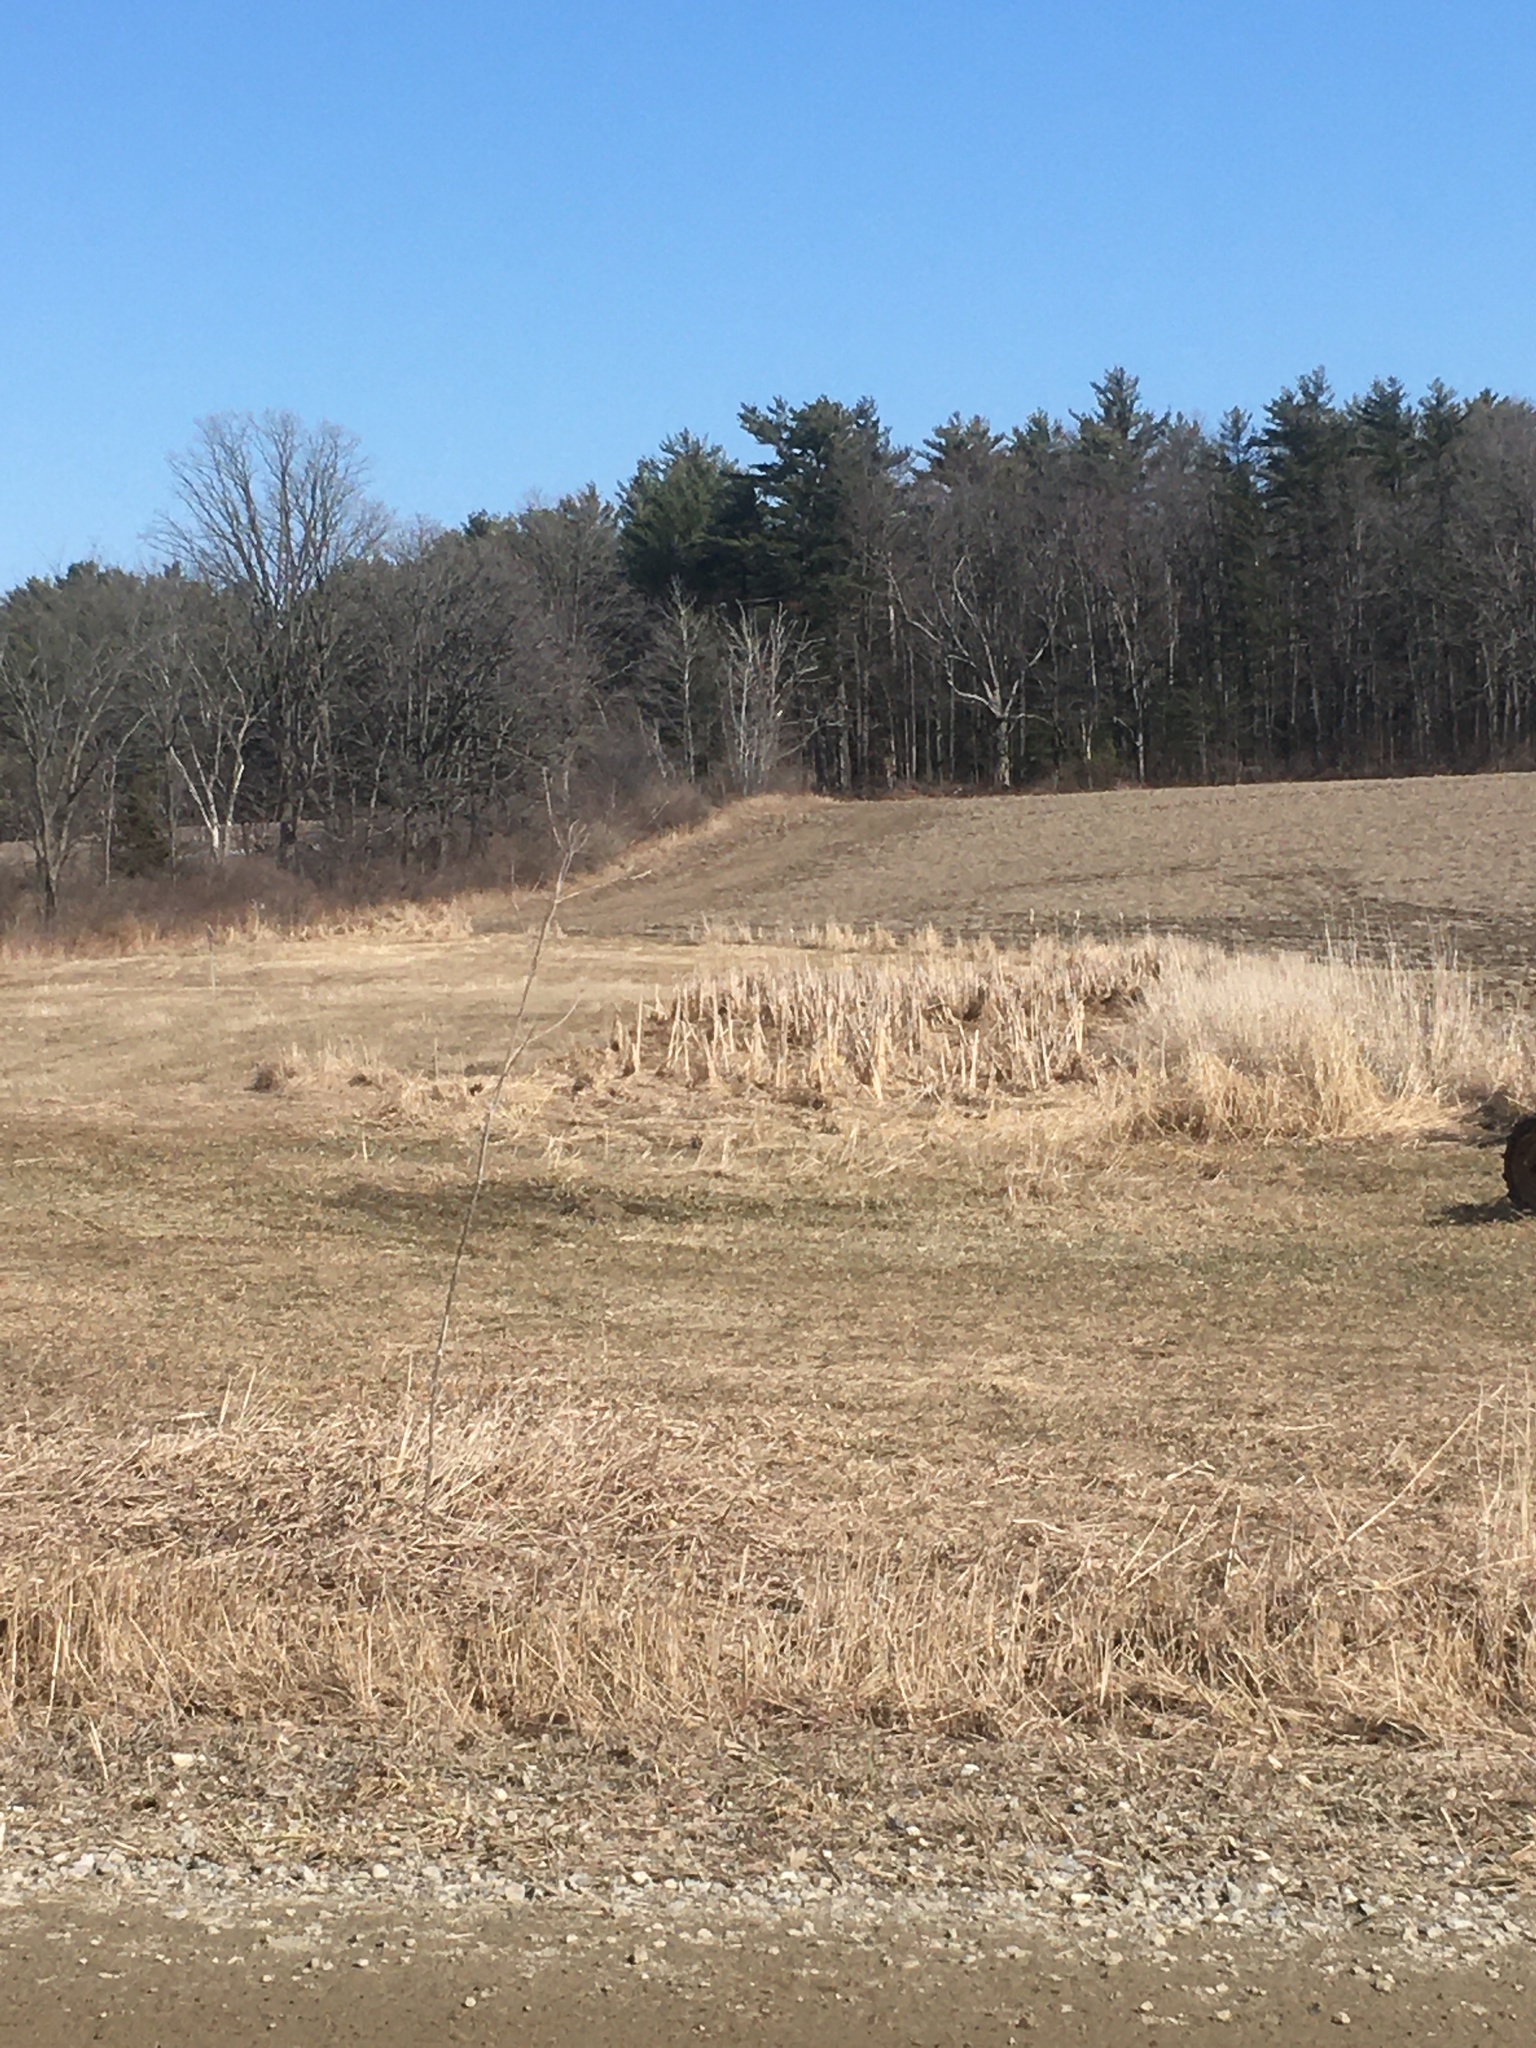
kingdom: Plantae
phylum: Tracheophyta
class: Liliopsida
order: Poales
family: Typhaceae
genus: Typha
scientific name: Typha
